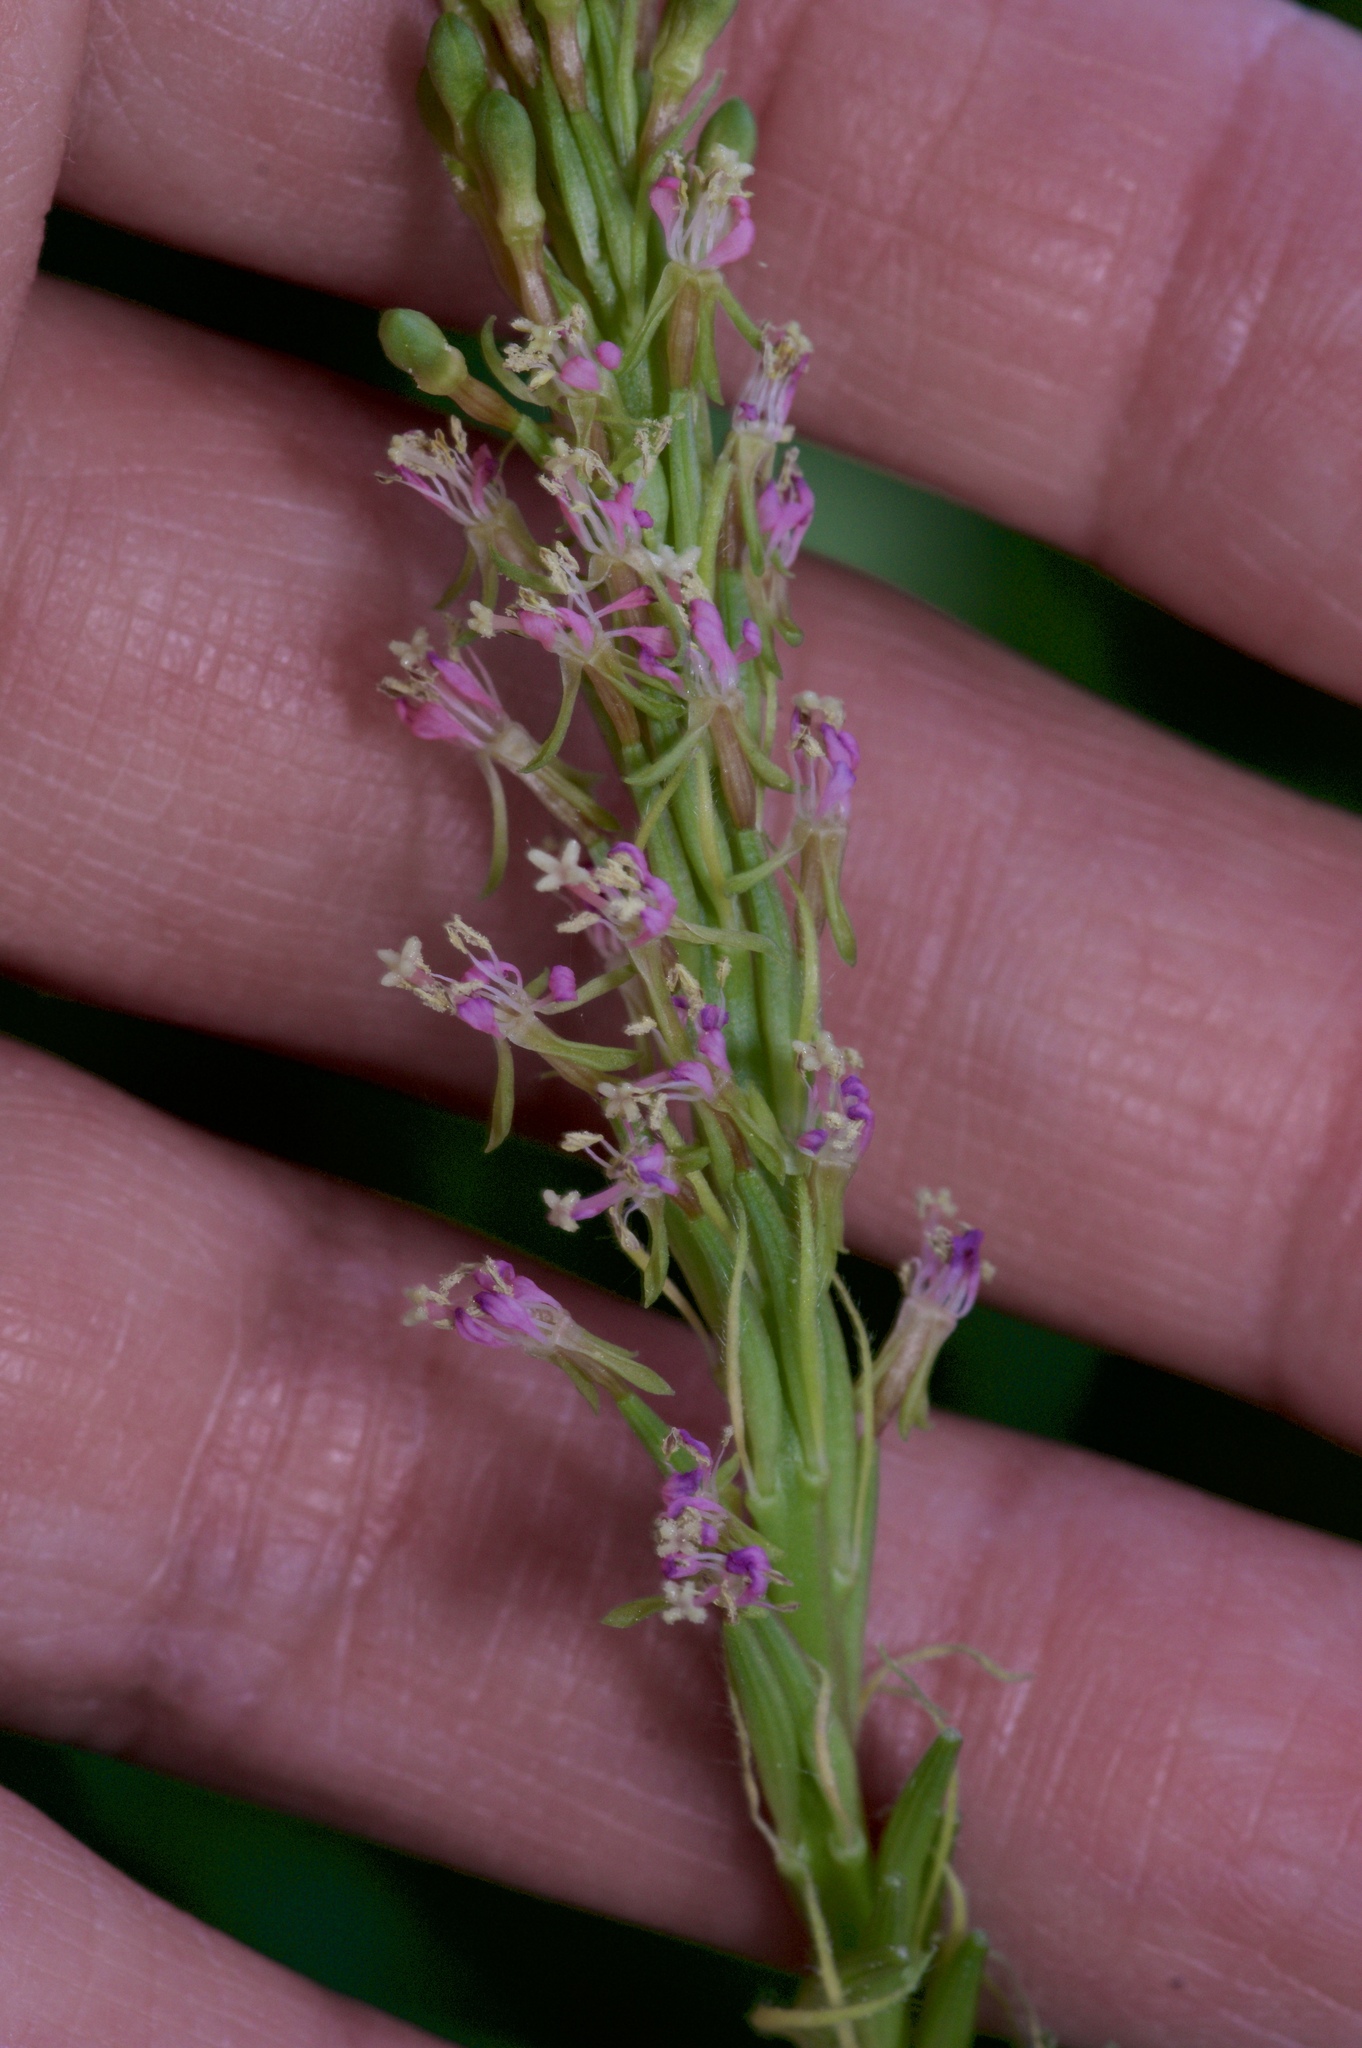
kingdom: Plantae
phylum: Tracheophyta
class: Magnoliopsida
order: Myrtales
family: Onagraceae
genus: Oenothera
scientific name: Oenothera curtiflora
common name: Velvetweed
